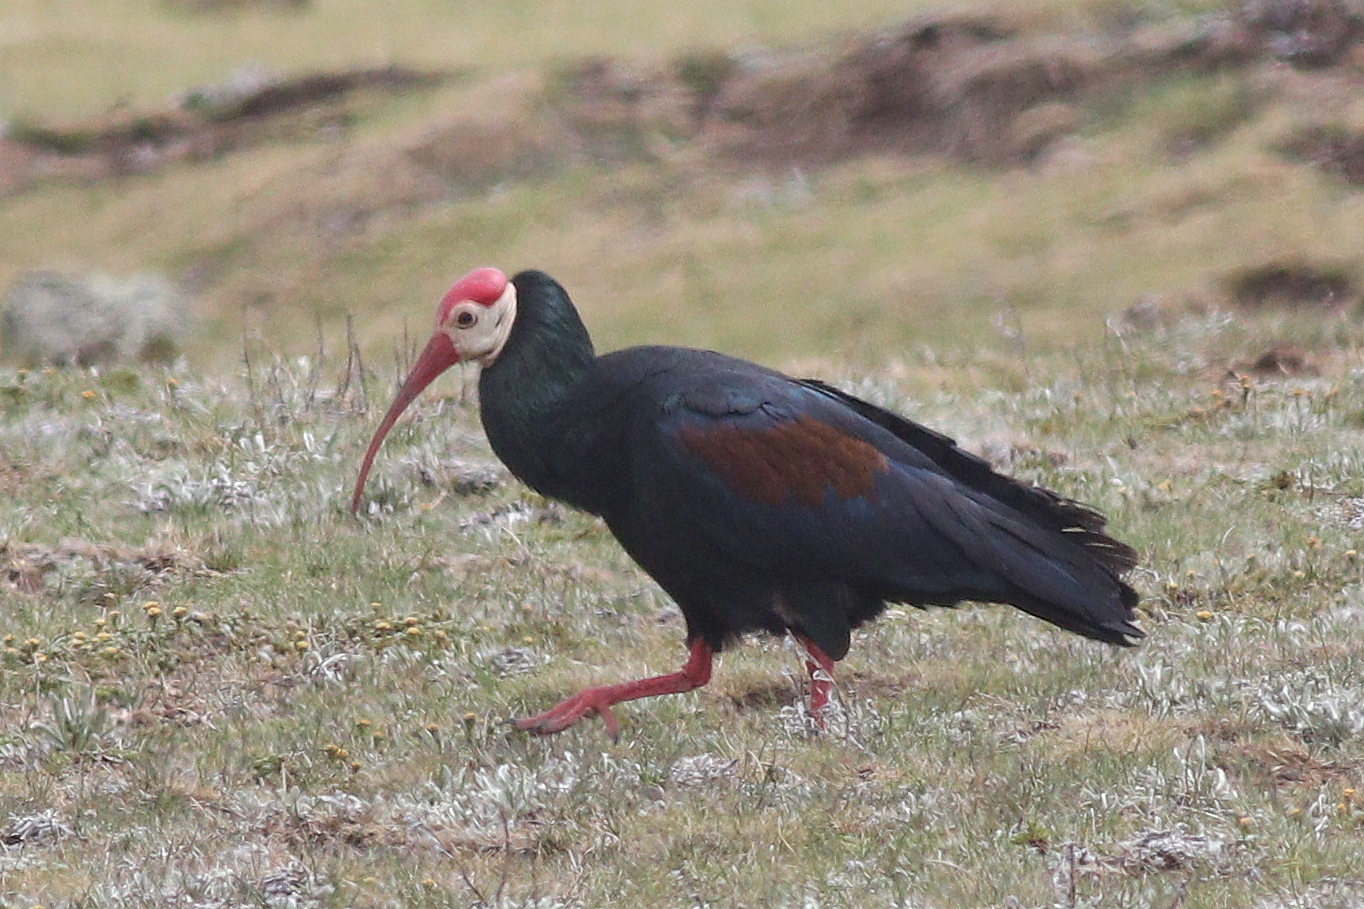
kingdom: Animalia
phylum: Chordata
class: Aves
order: Pelecaniformes
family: Threskiornithidae
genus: Geronticus
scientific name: Geronticus calvus
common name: Southern bald ibis
